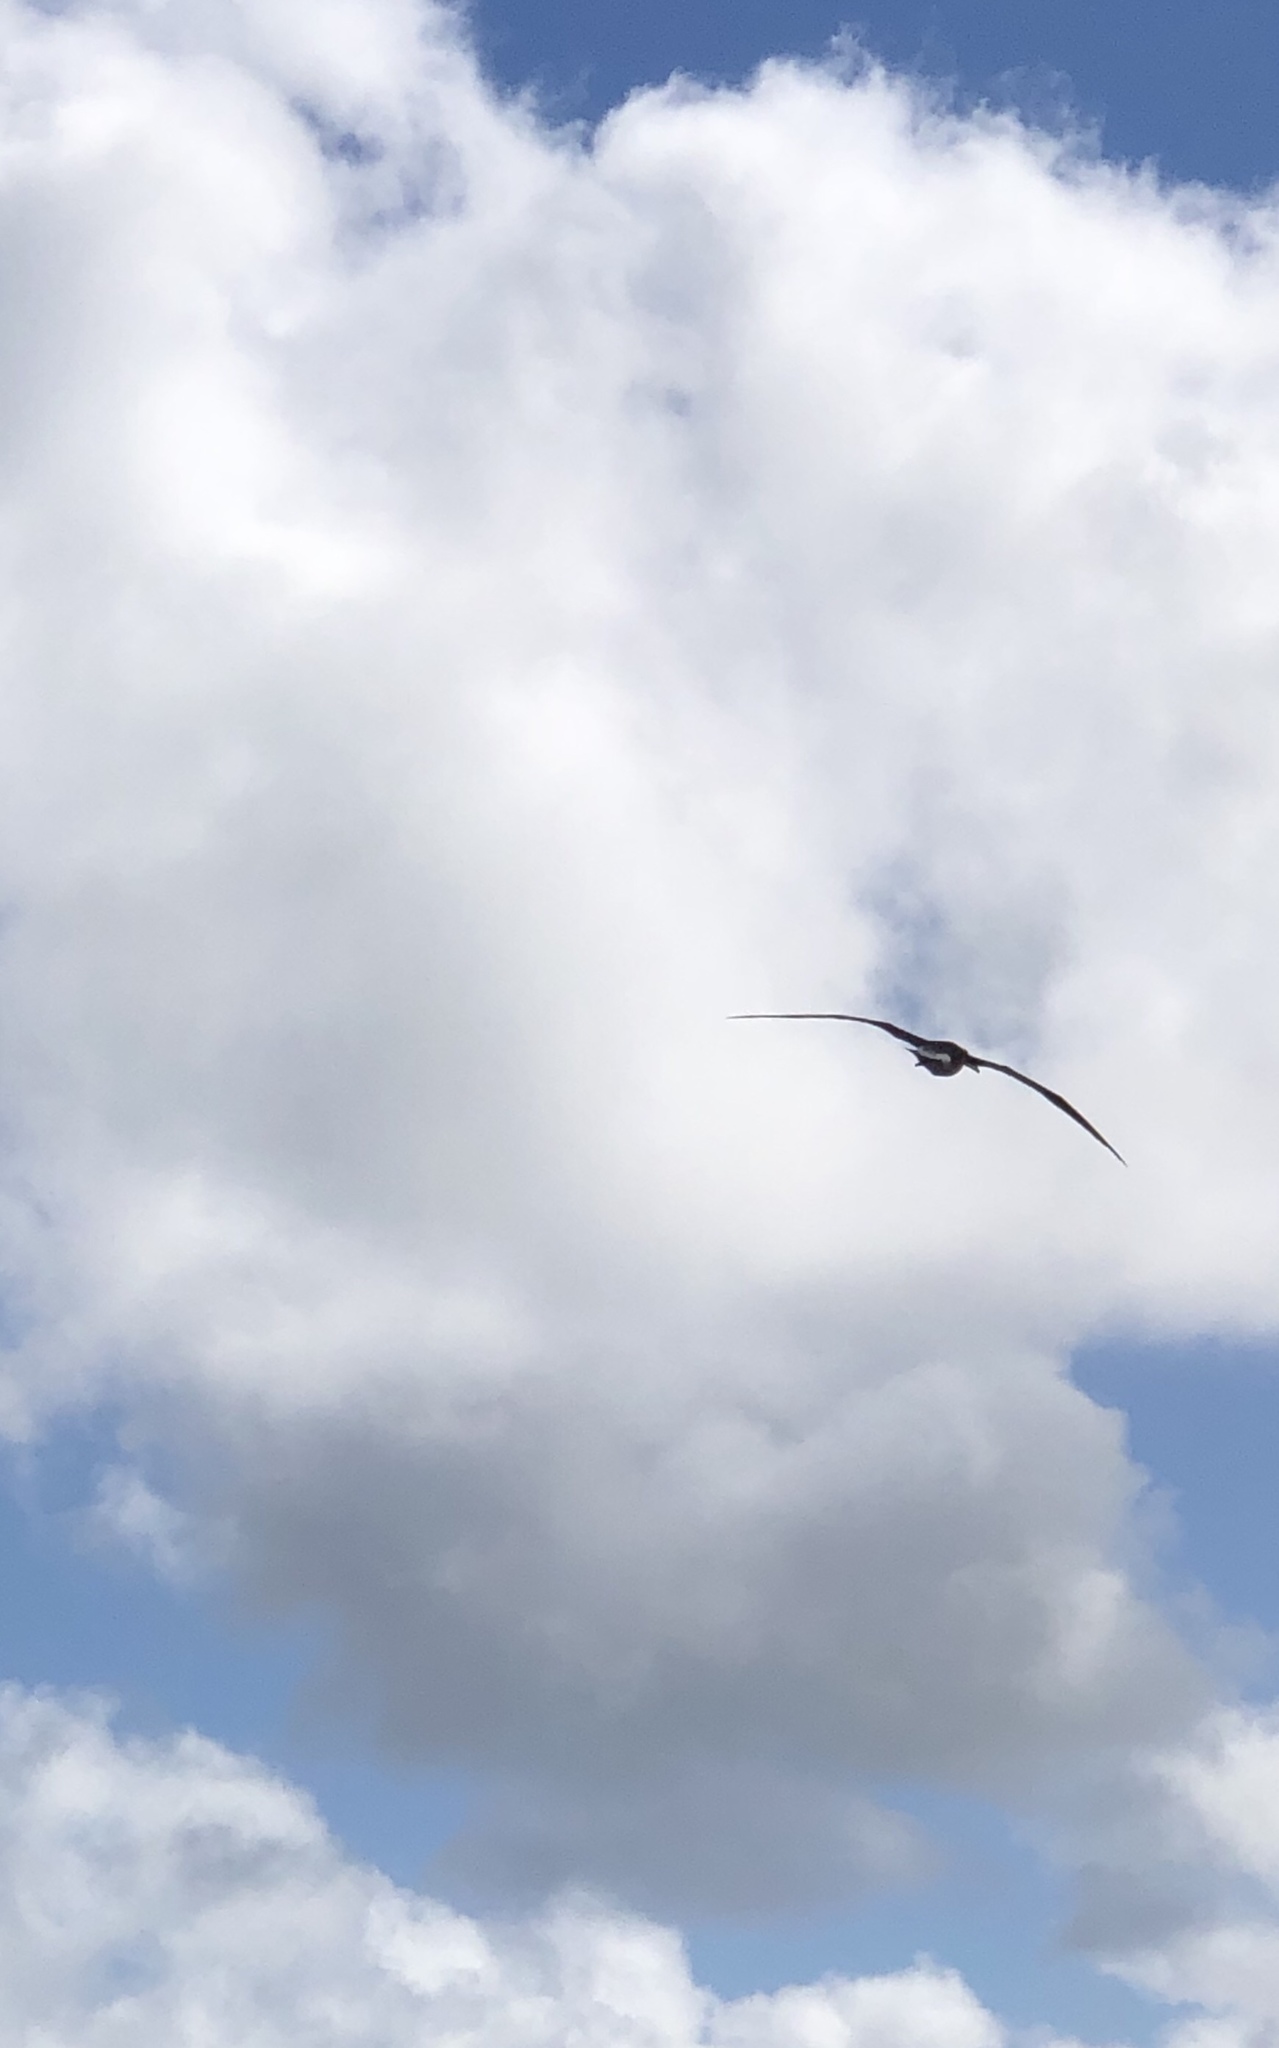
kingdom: Animalia
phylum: Chordata
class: Aves
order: Procellariiformes
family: Diomedeidae
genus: Phoebastria
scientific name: Phoebastria immutabilis
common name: Laysan albatross
